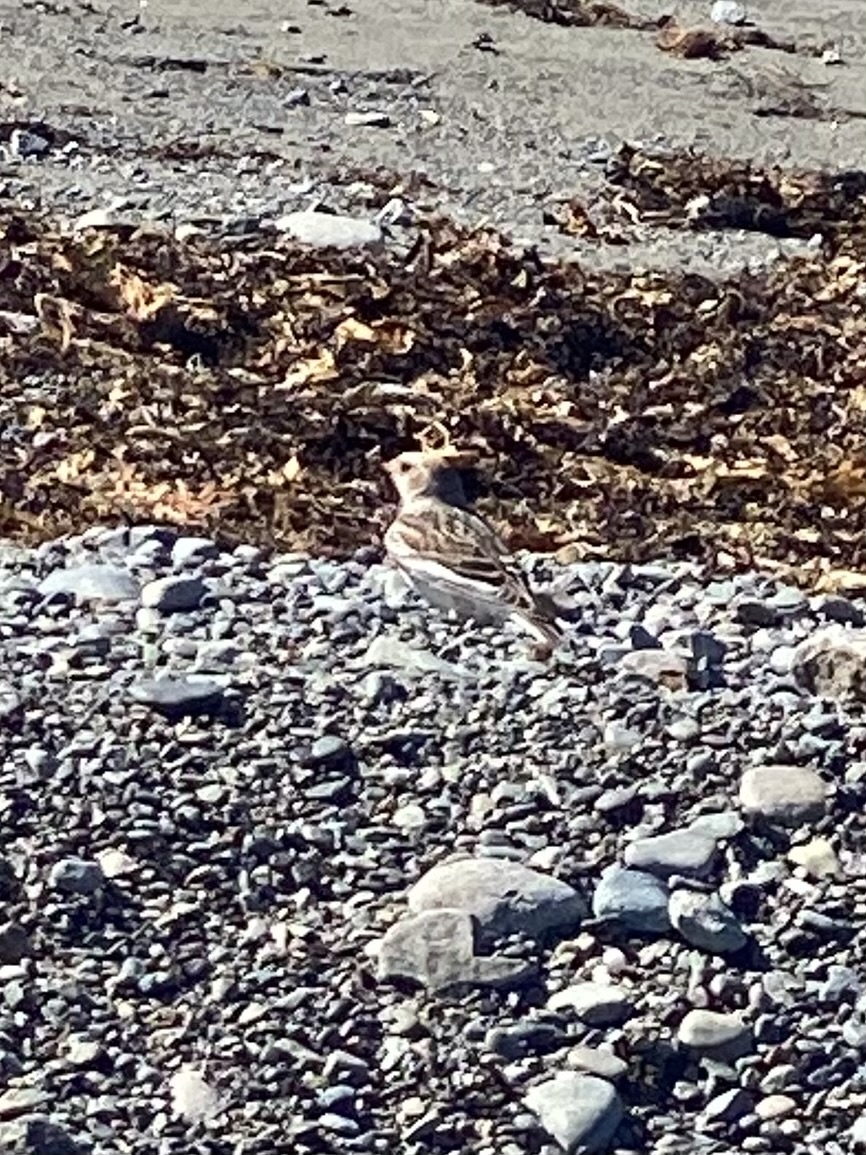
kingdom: Animalia
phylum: Chordata
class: Aves
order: Passeriformes
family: Calcariidae
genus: Plectrophenax
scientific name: Plectrophenax nivalis
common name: Snow bunting
